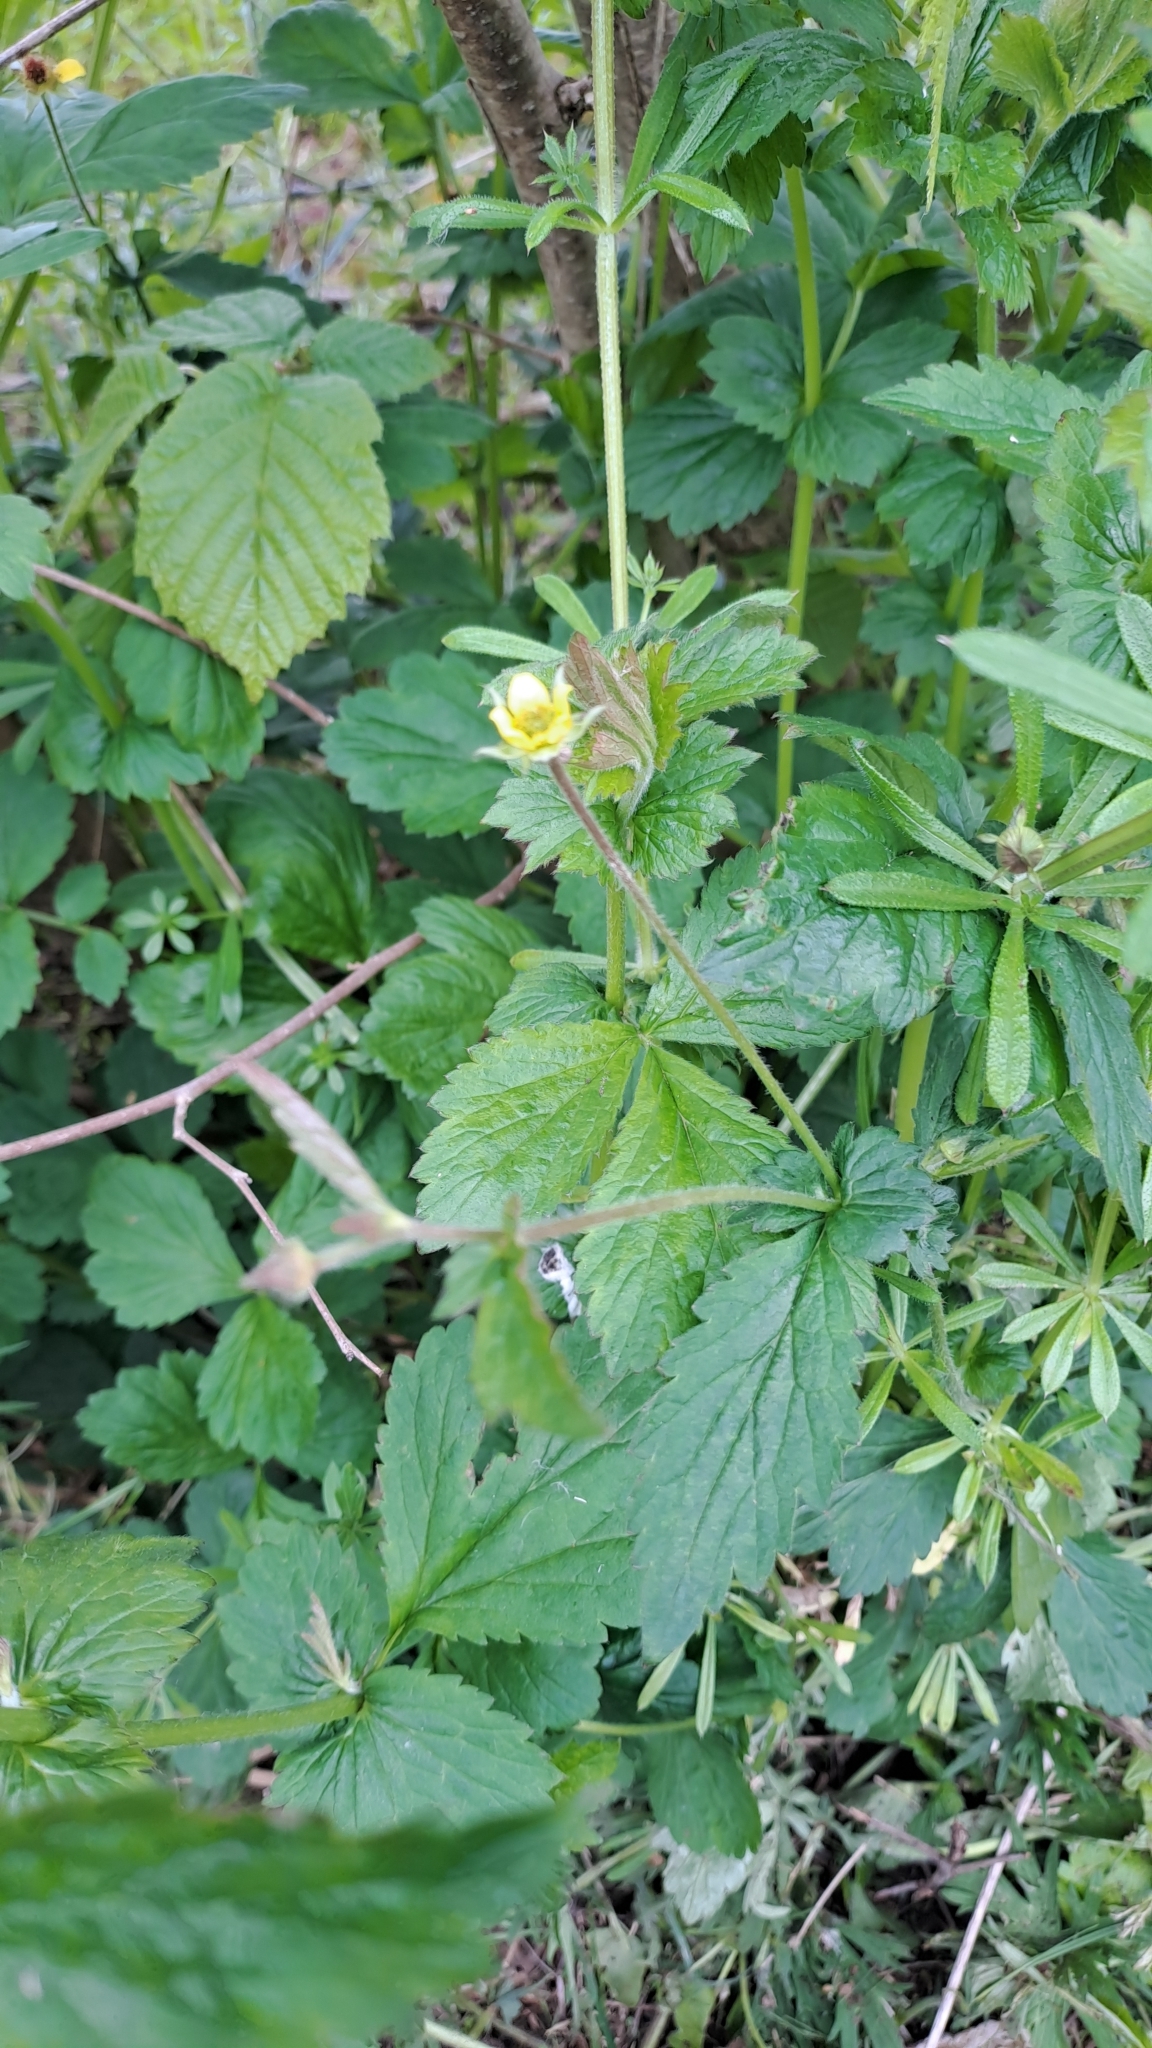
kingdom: Plantae
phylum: Tracheophyta
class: Magnoliopsida
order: Rosales
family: Rosaceae
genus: Geum
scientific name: Geum urbanum
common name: Wood avens
